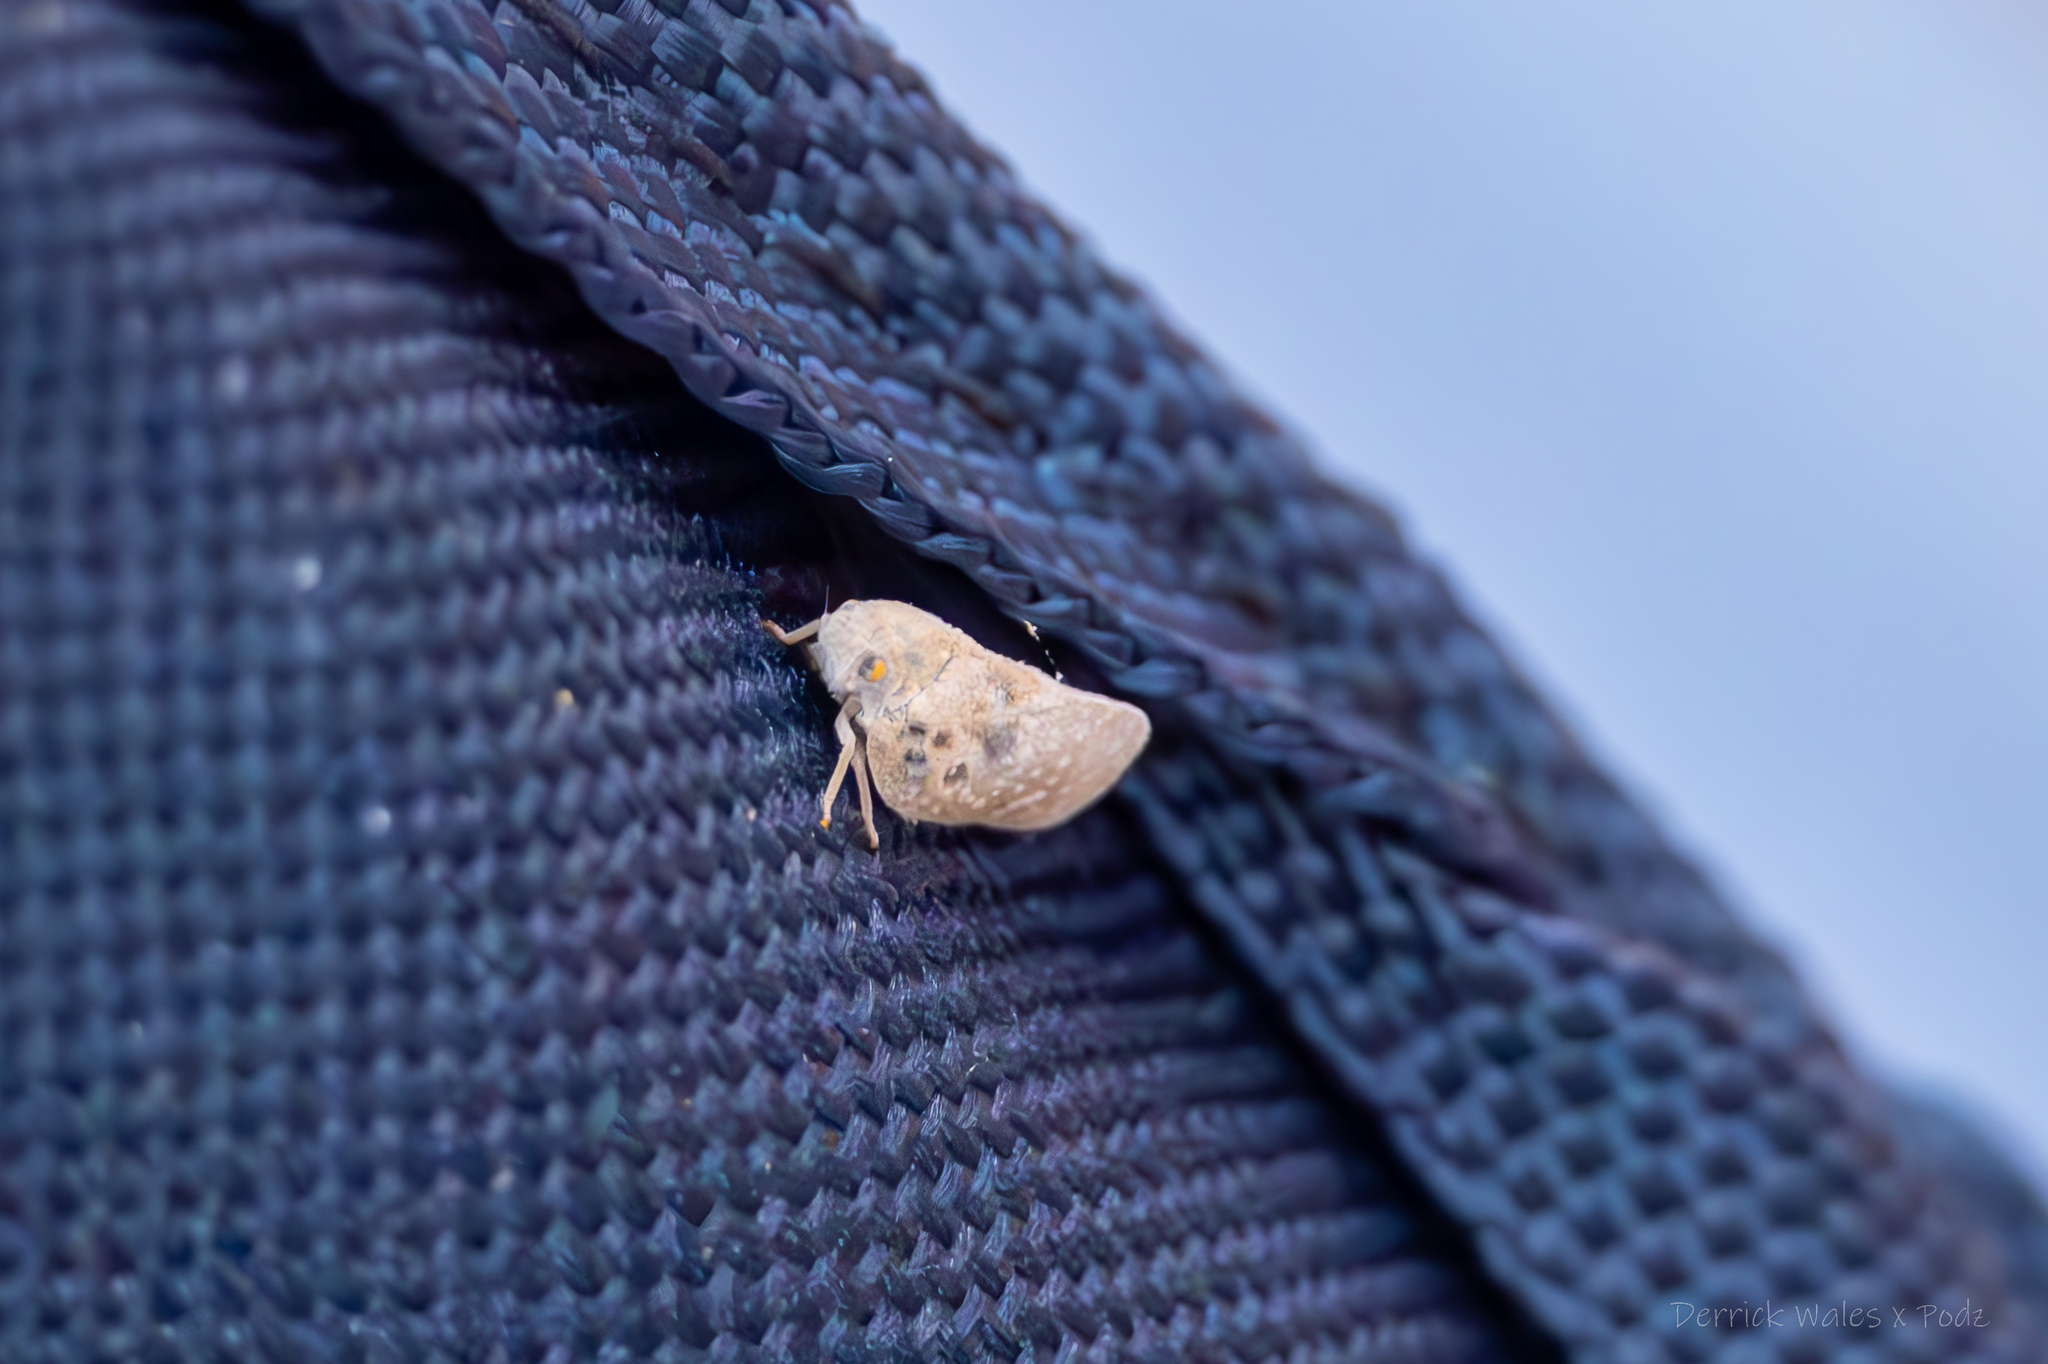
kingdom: Animalia
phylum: Arthropoda
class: Insecta
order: Hemiptera
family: Flatidae
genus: Metcalfa
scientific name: Metcalfa pruinosa
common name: Citrus flatid planthopper
